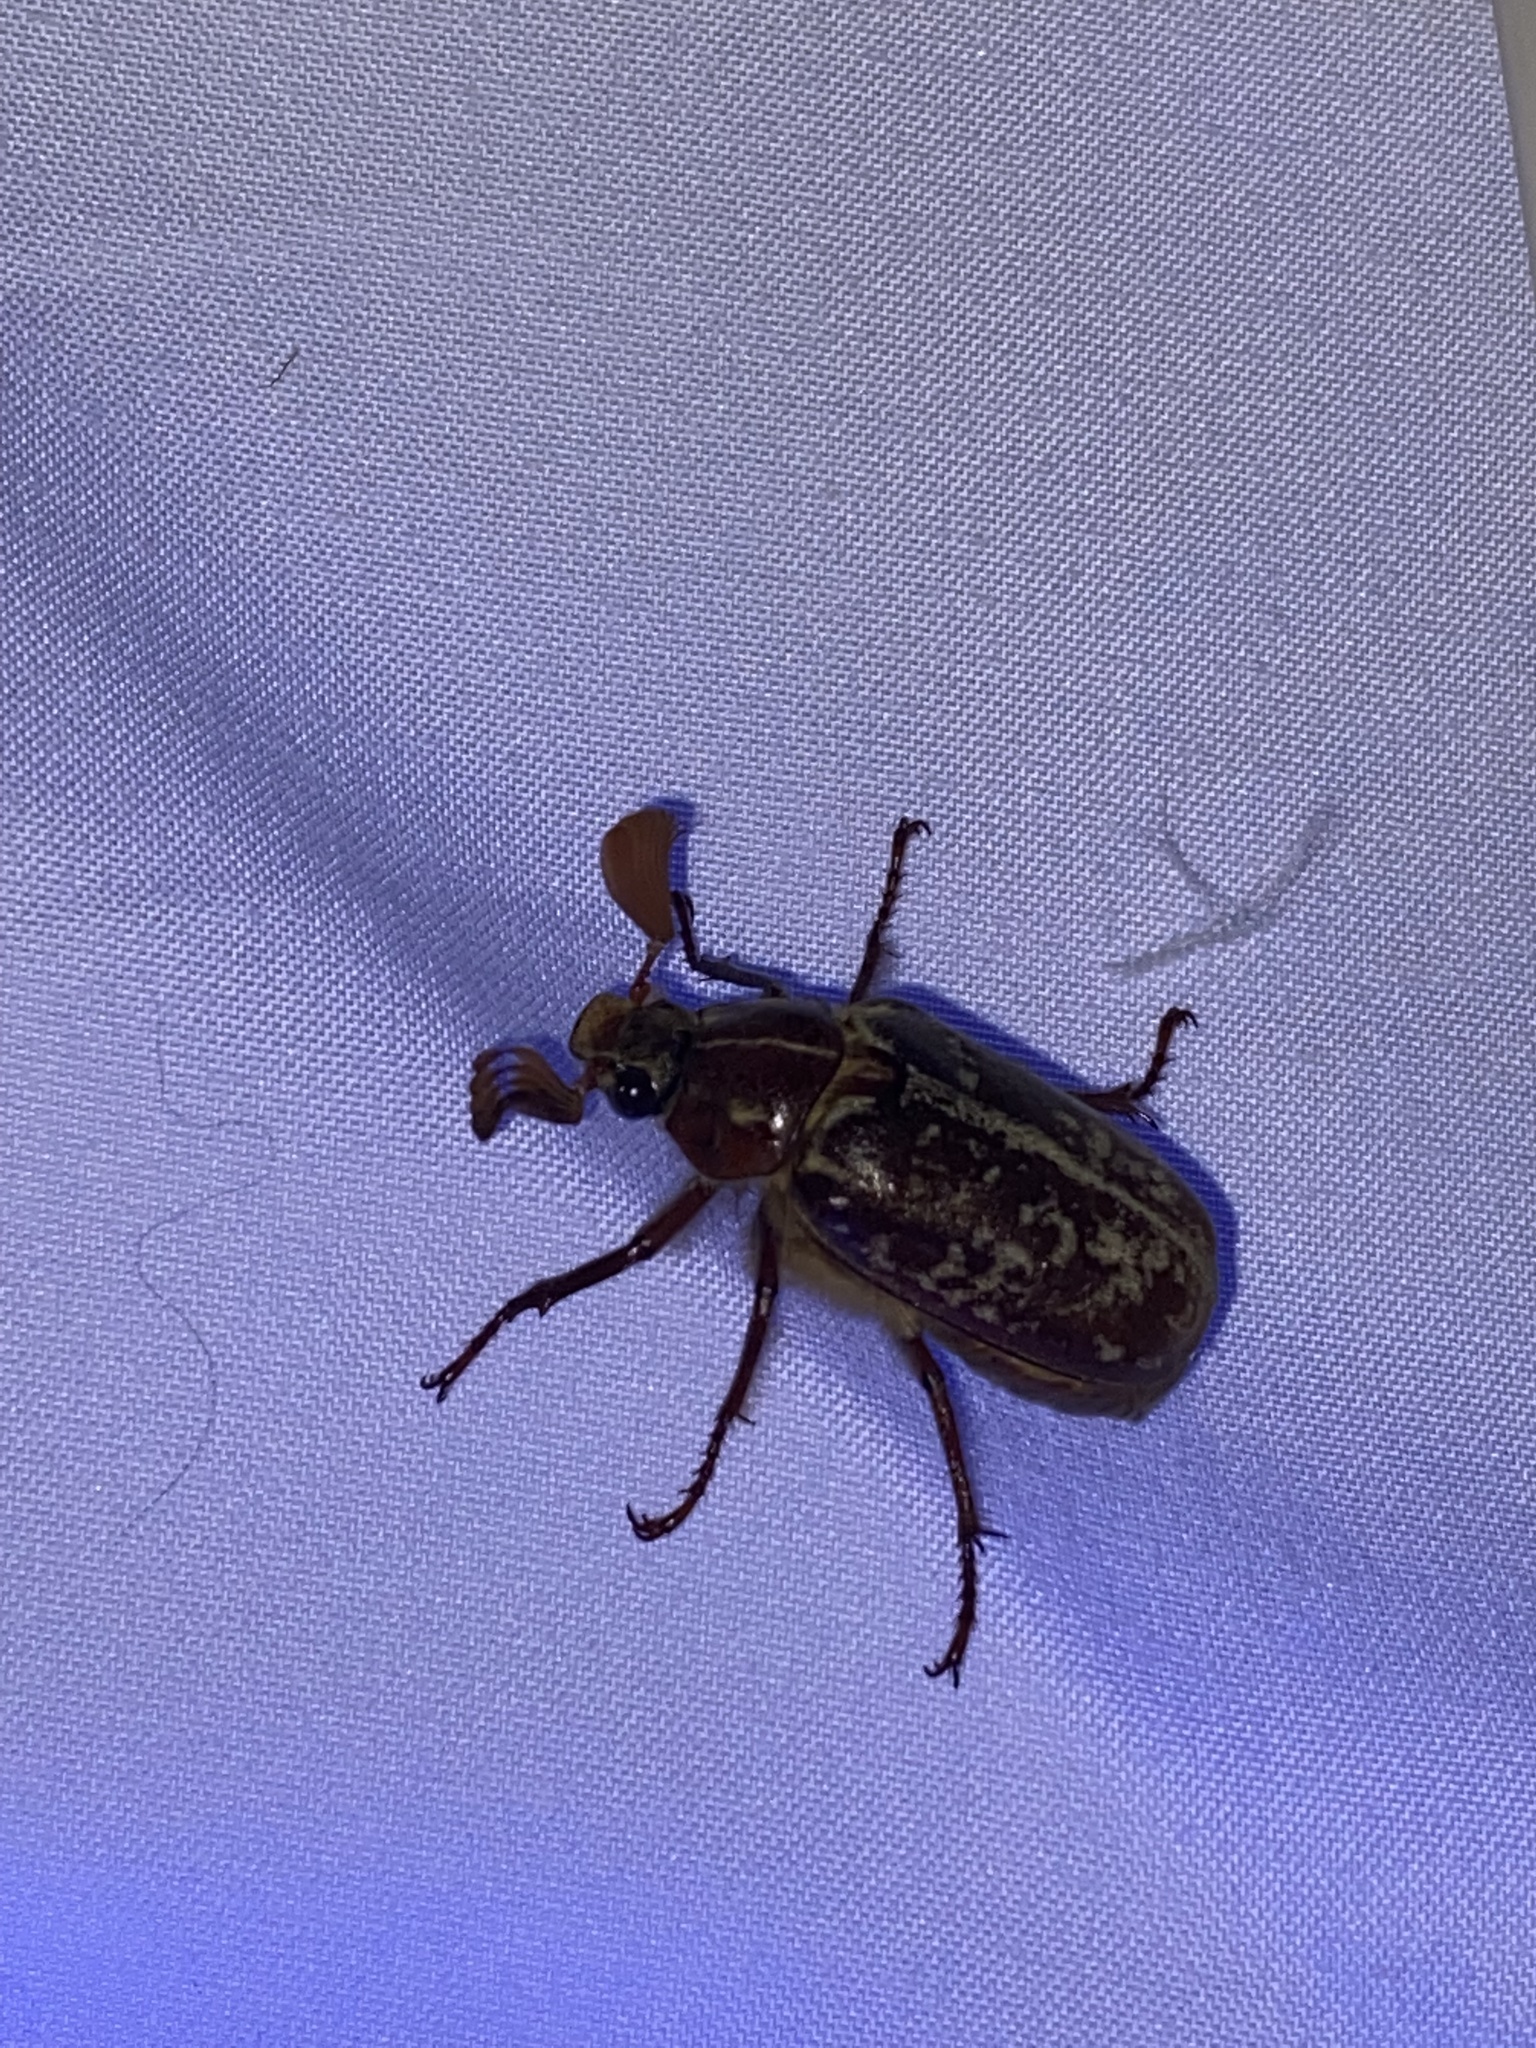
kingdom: Animalia
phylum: Arthropoda
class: Insecta
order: Coleoptera
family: Scarabaeidae
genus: Polyphylla
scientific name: Polyphylla variolosa
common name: Variegated june beetle
